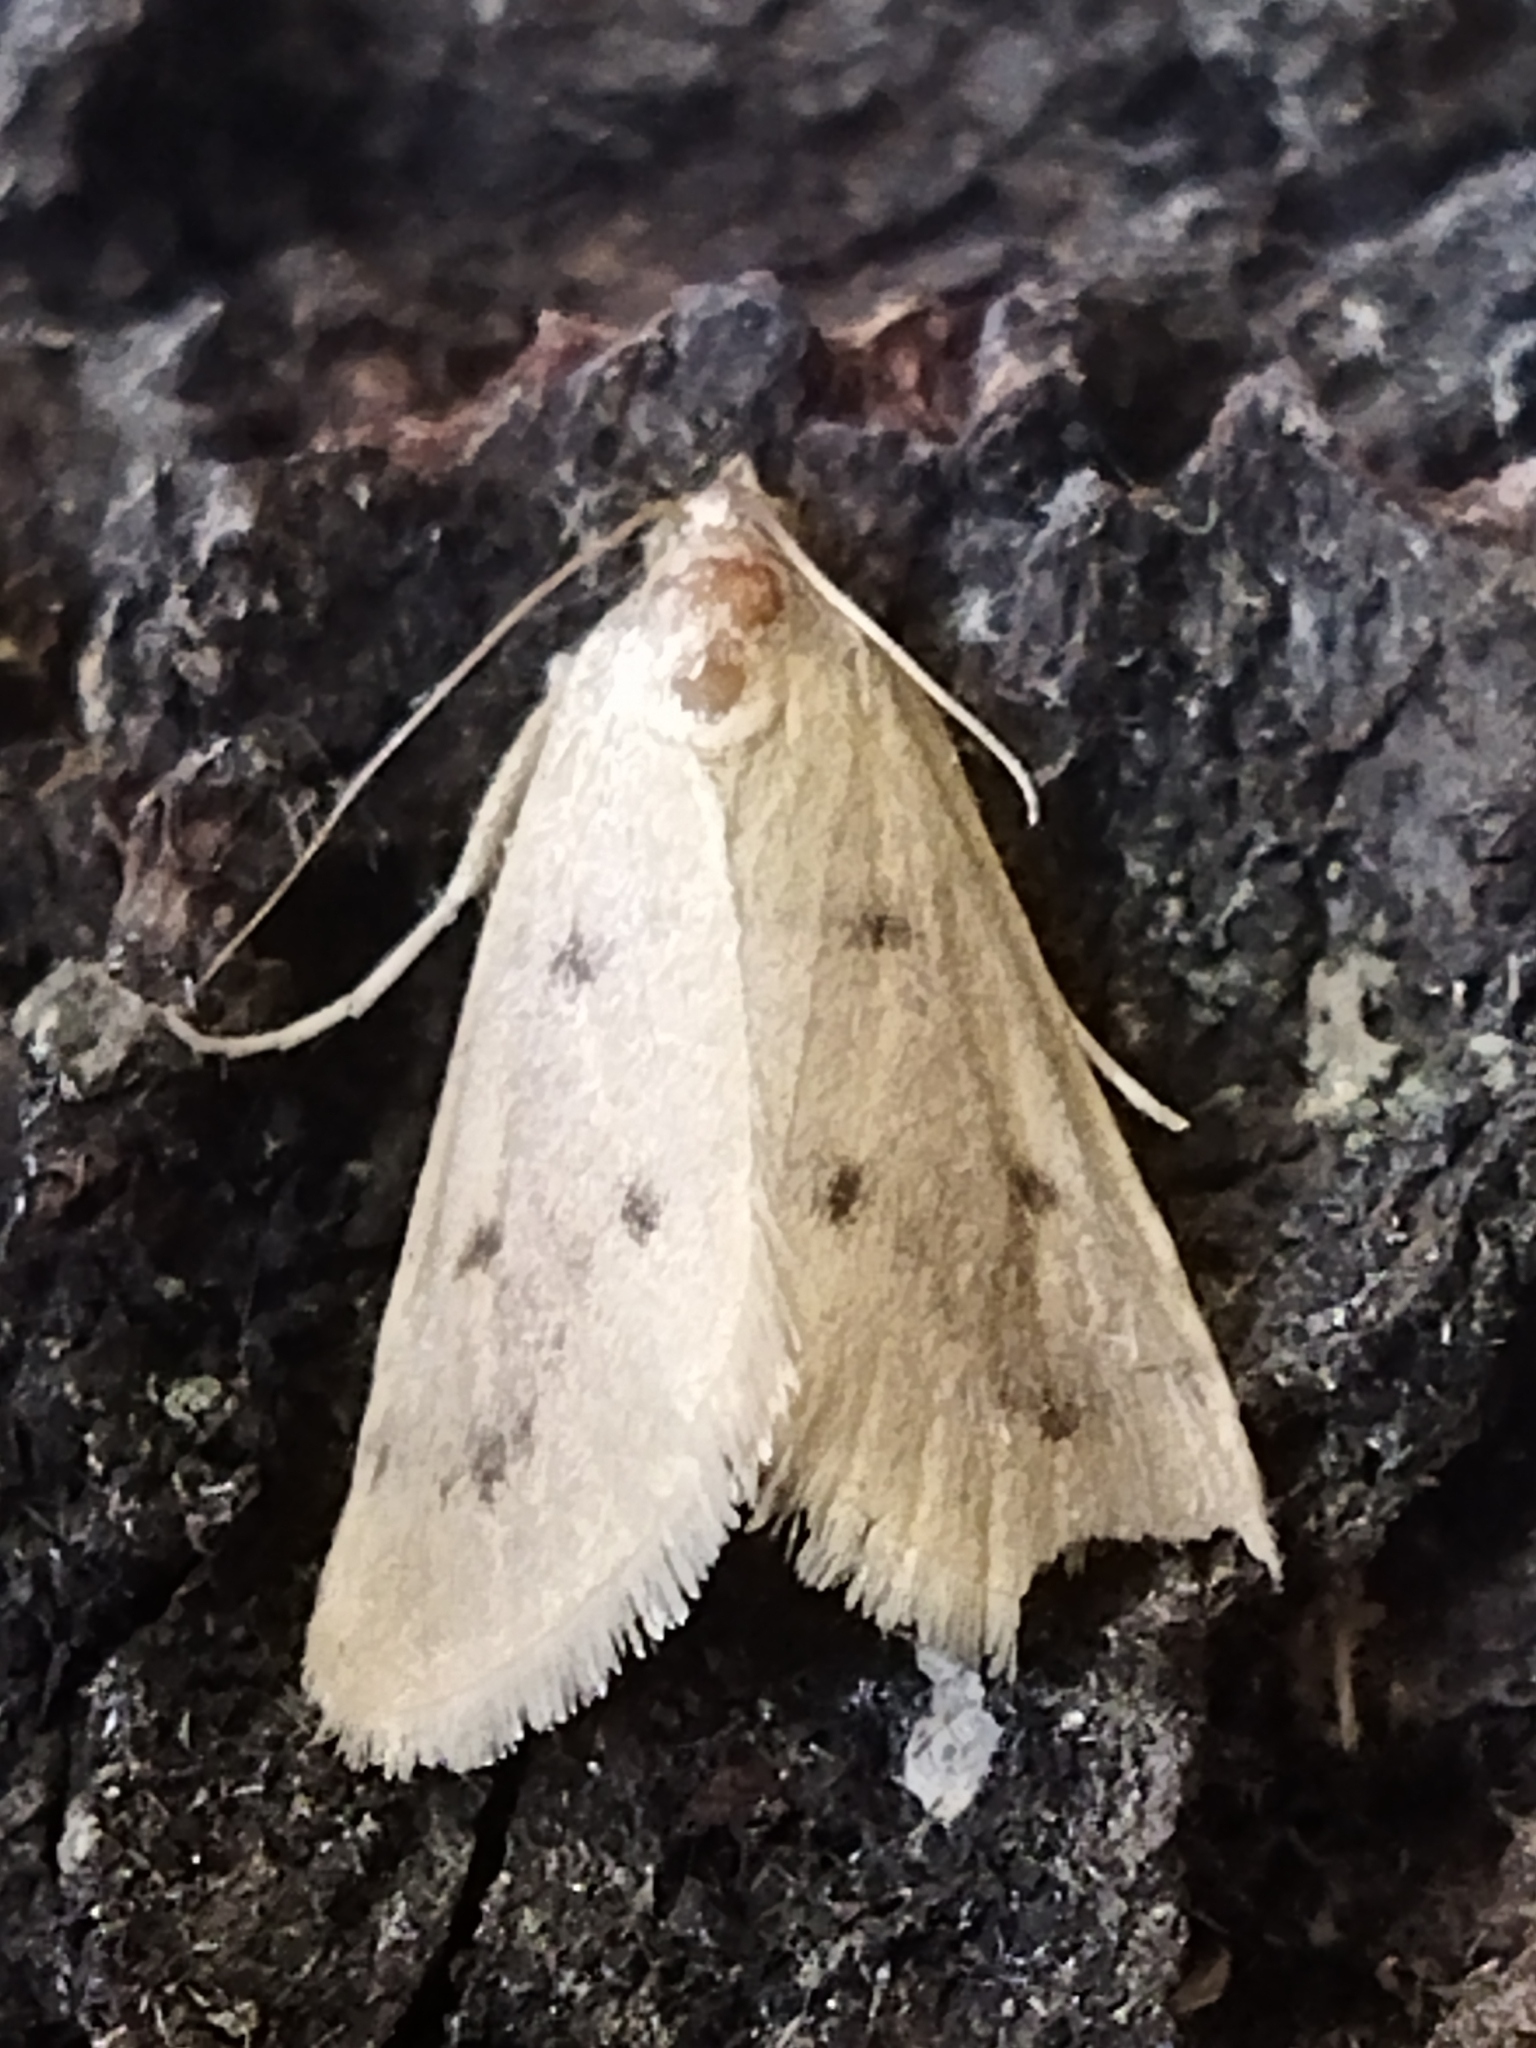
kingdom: Animalia
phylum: Arthropoda
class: Insecta
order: Lepidoptera
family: Crambidae
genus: Achyra
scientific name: Achyra nudalis
